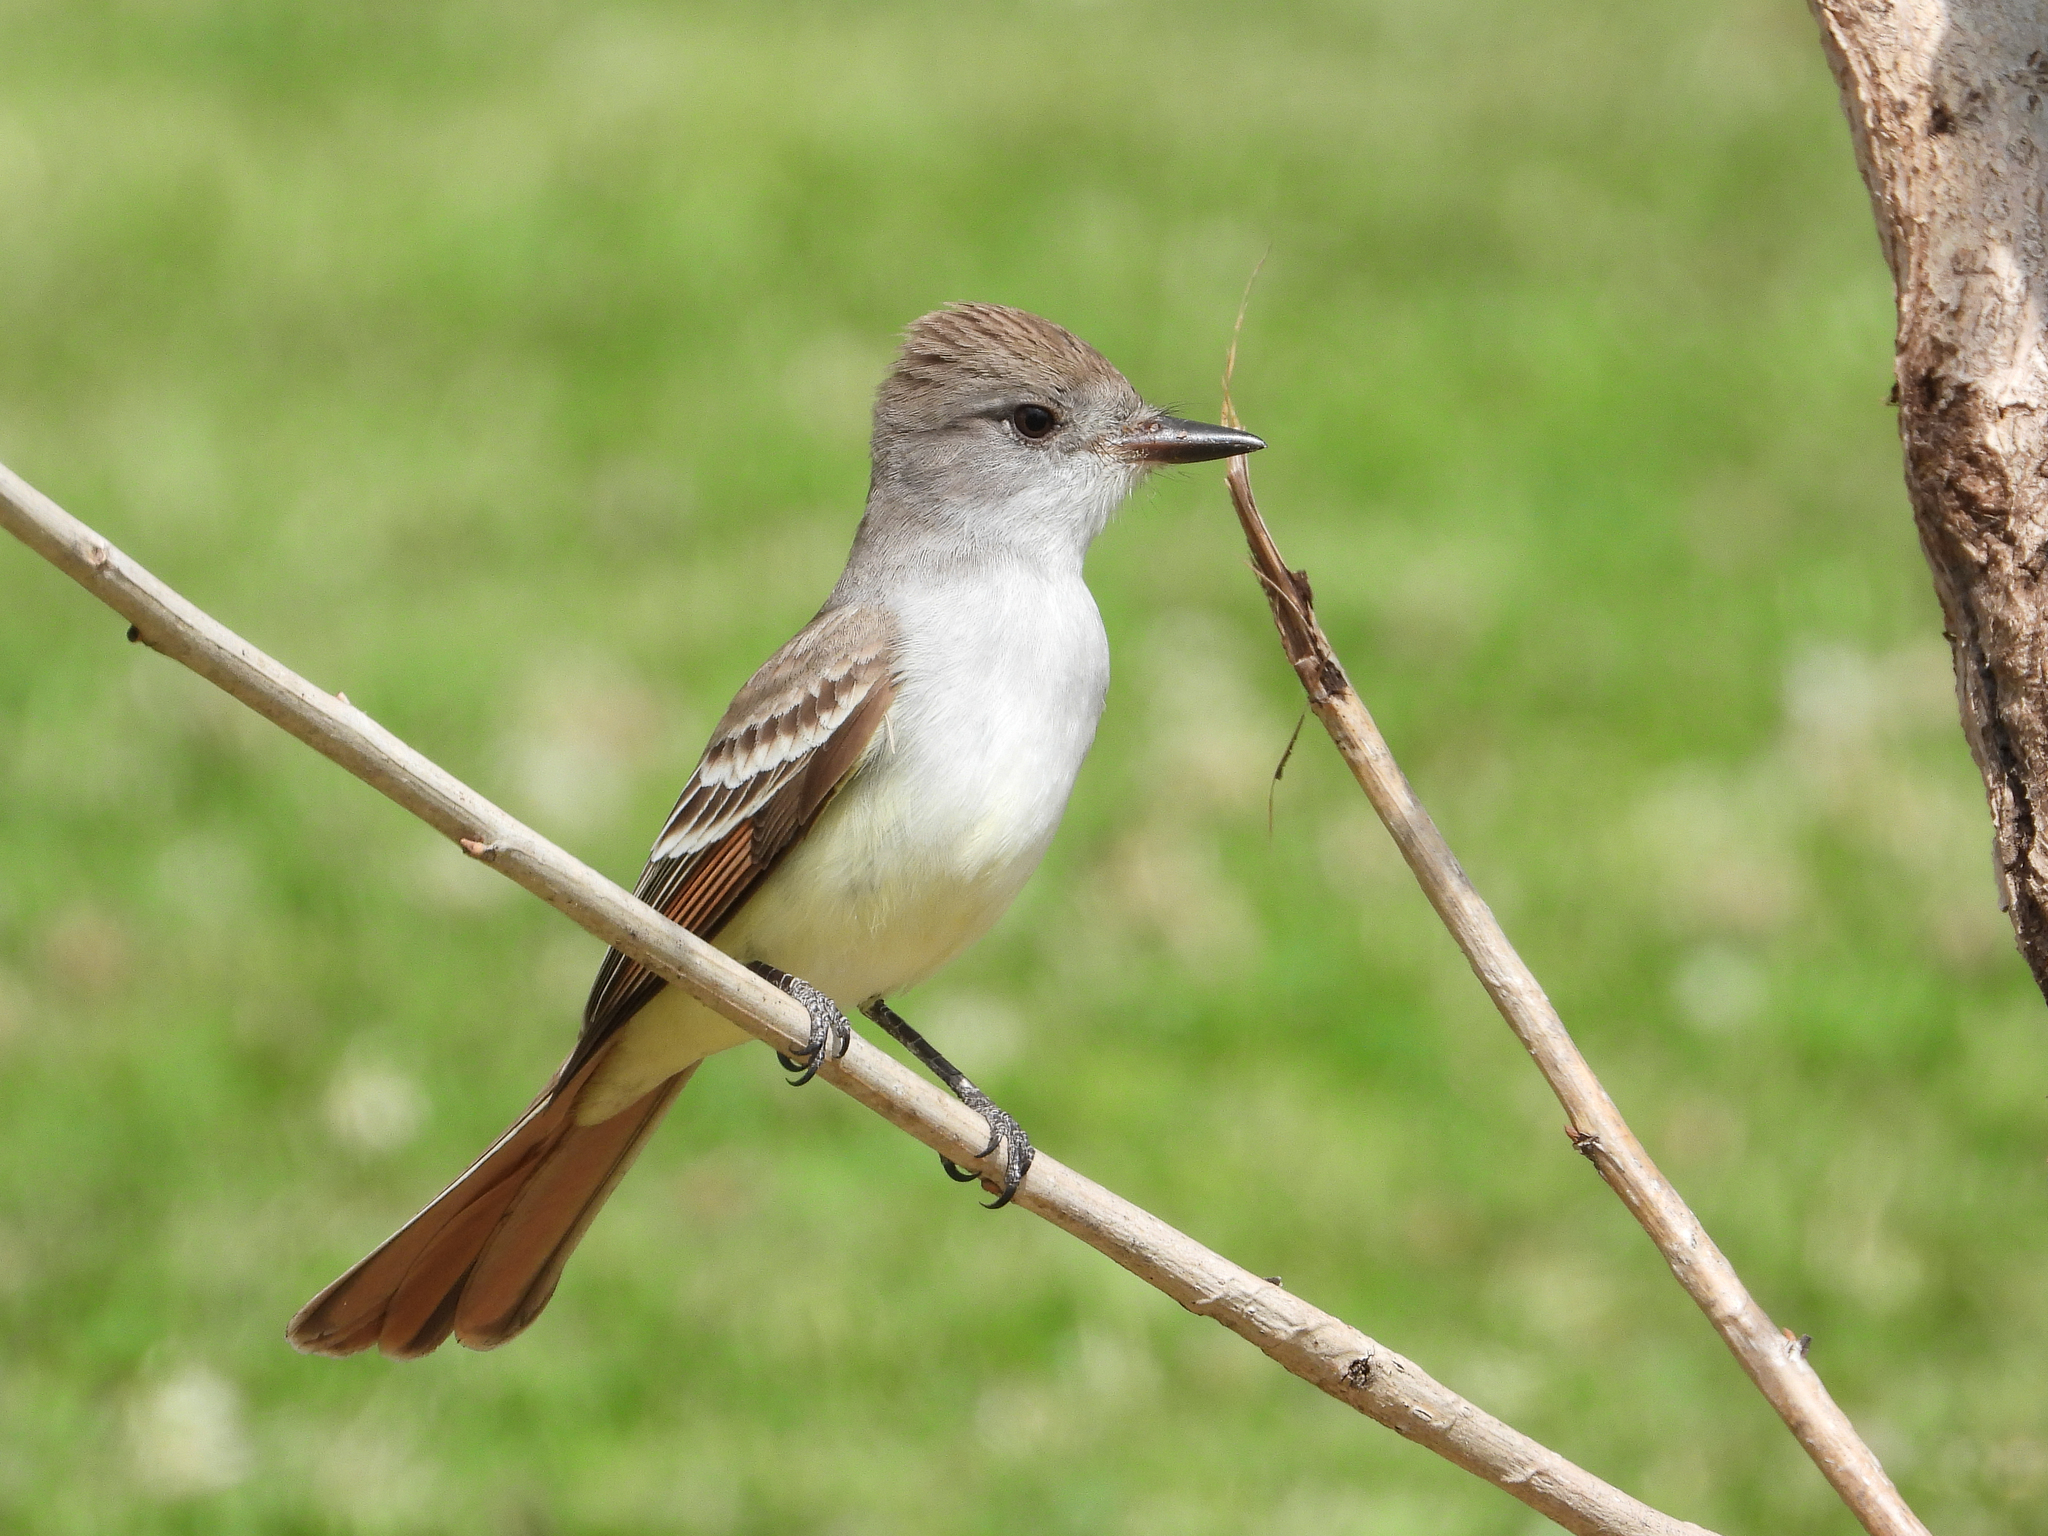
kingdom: Animalia
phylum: Chordata
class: Aves
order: Passeriformes
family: Tyrannidae
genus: Myiarchus
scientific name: Myiarchus cinerascens
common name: Ash-throated flycatcher
